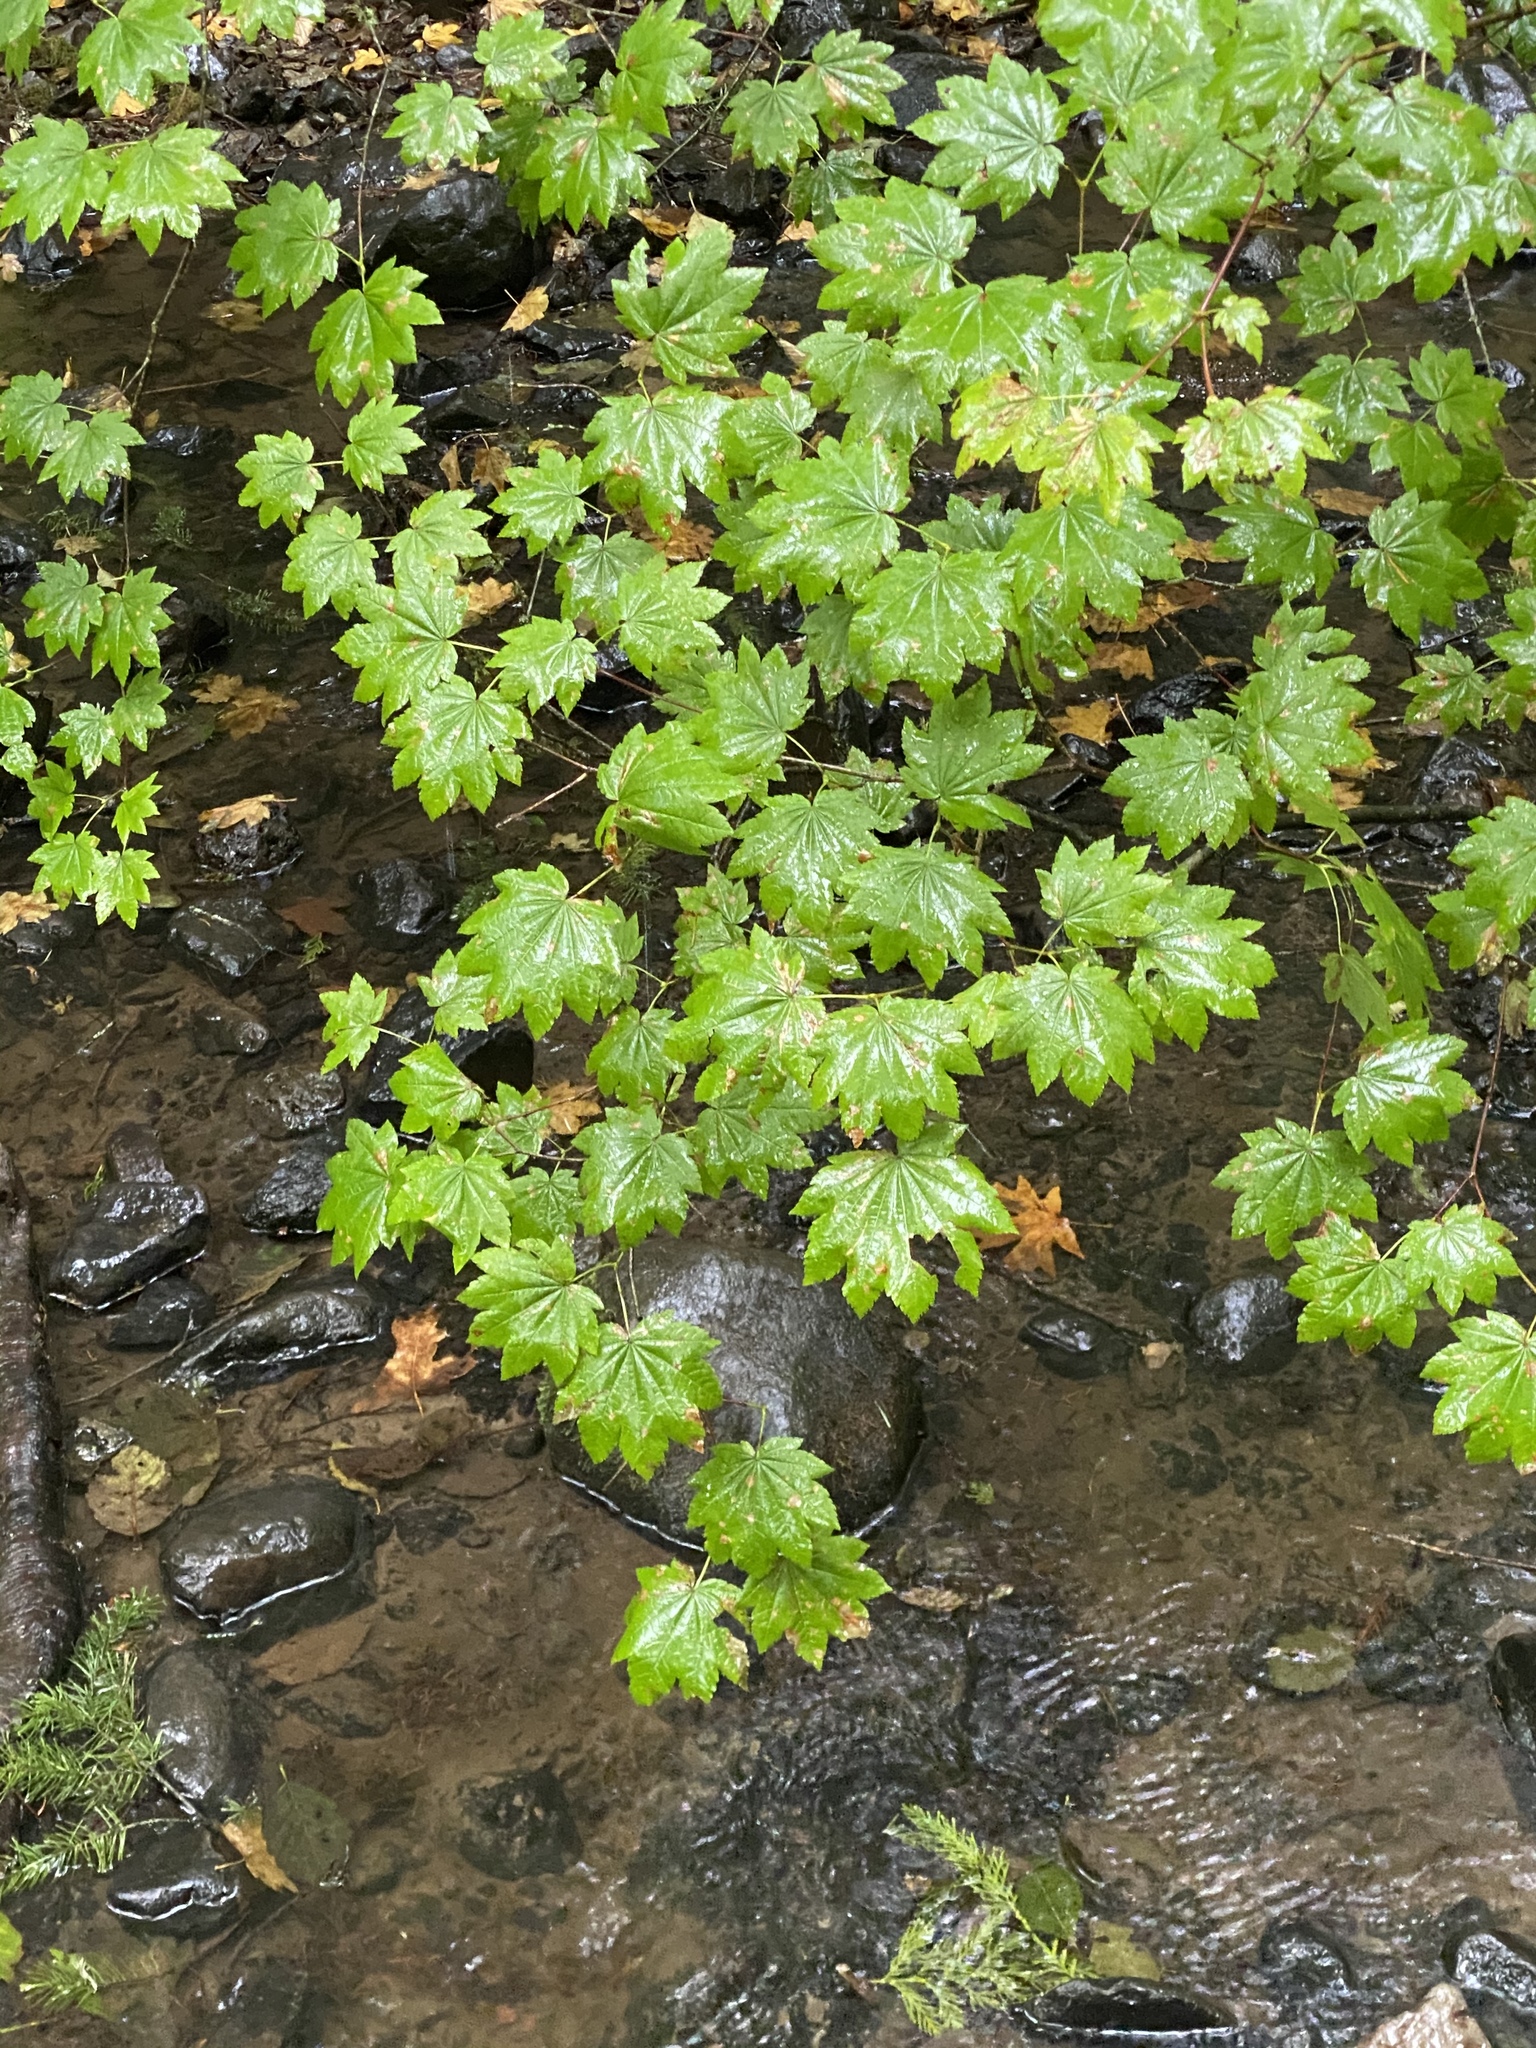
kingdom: Plantae
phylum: Tracheophyta
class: Magnoliopsida
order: Sapindales
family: Sapindaceae
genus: Acer
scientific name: Acer circinatum
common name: Vine maple
